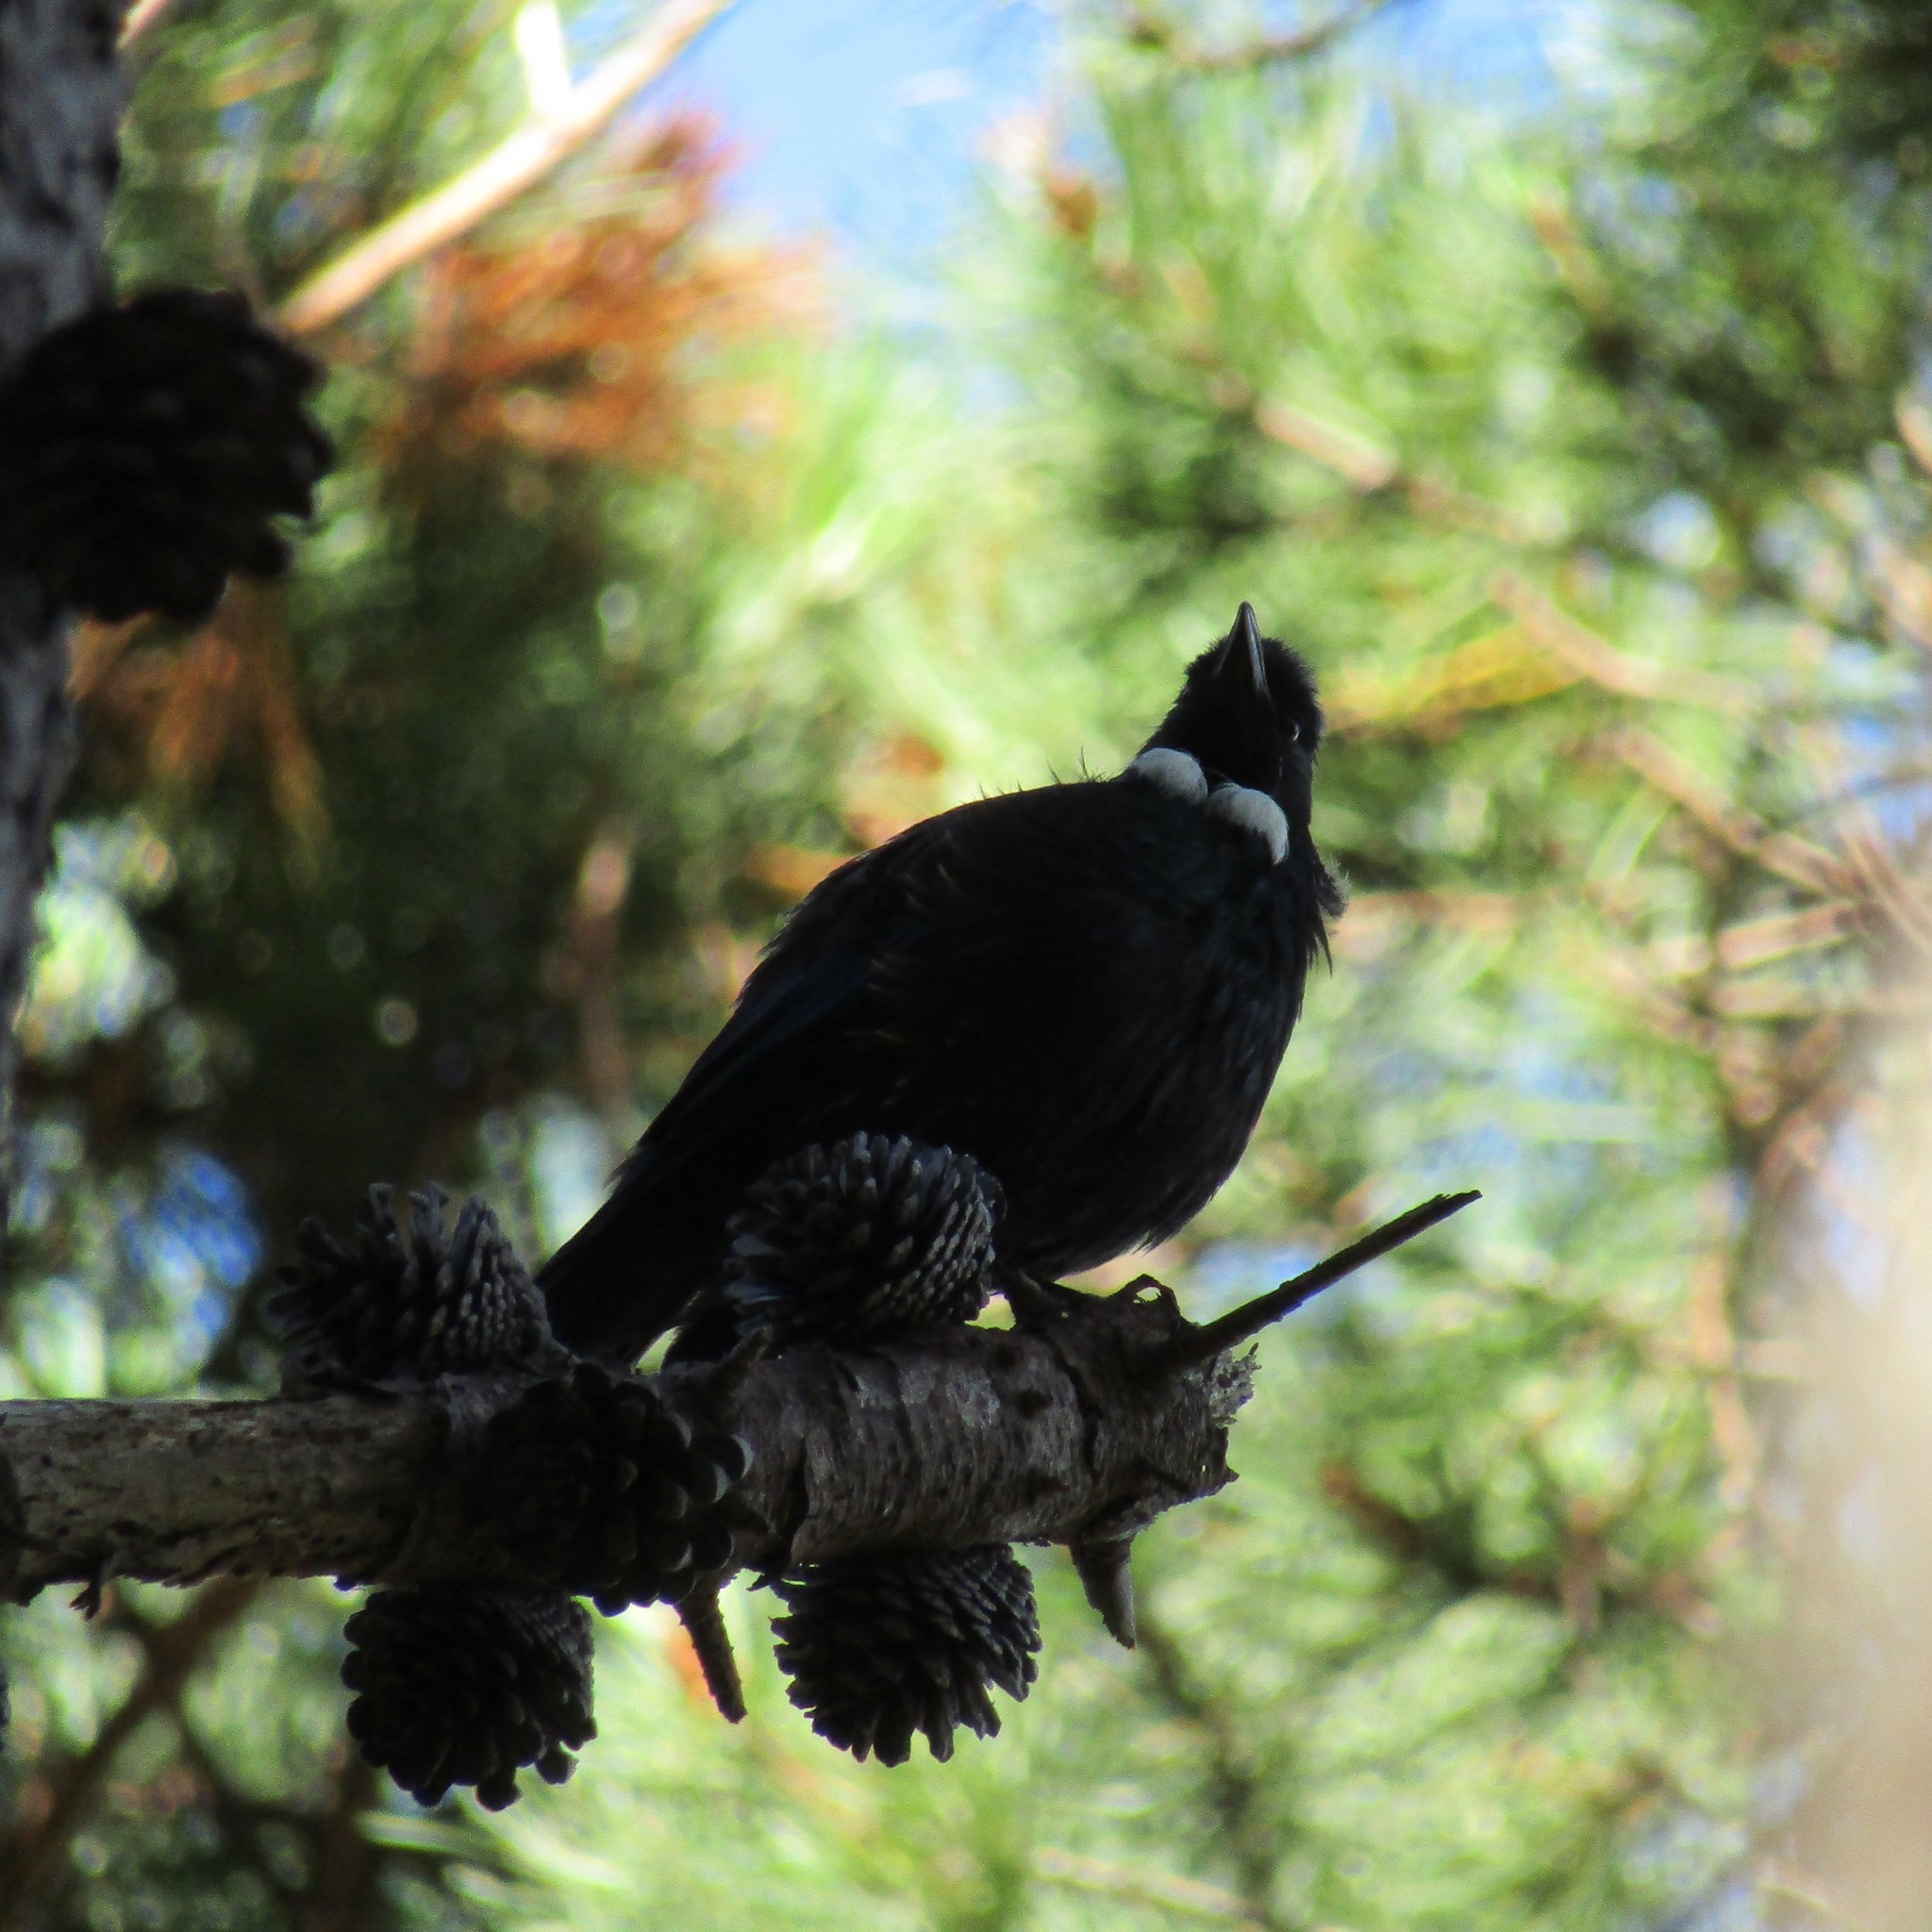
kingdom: Animalia
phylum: Chordata
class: Aves
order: Passeriformes
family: Meliphagidae
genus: Prosthemadera
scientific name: Prosthemadera novaeseelandiae
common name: Tui
